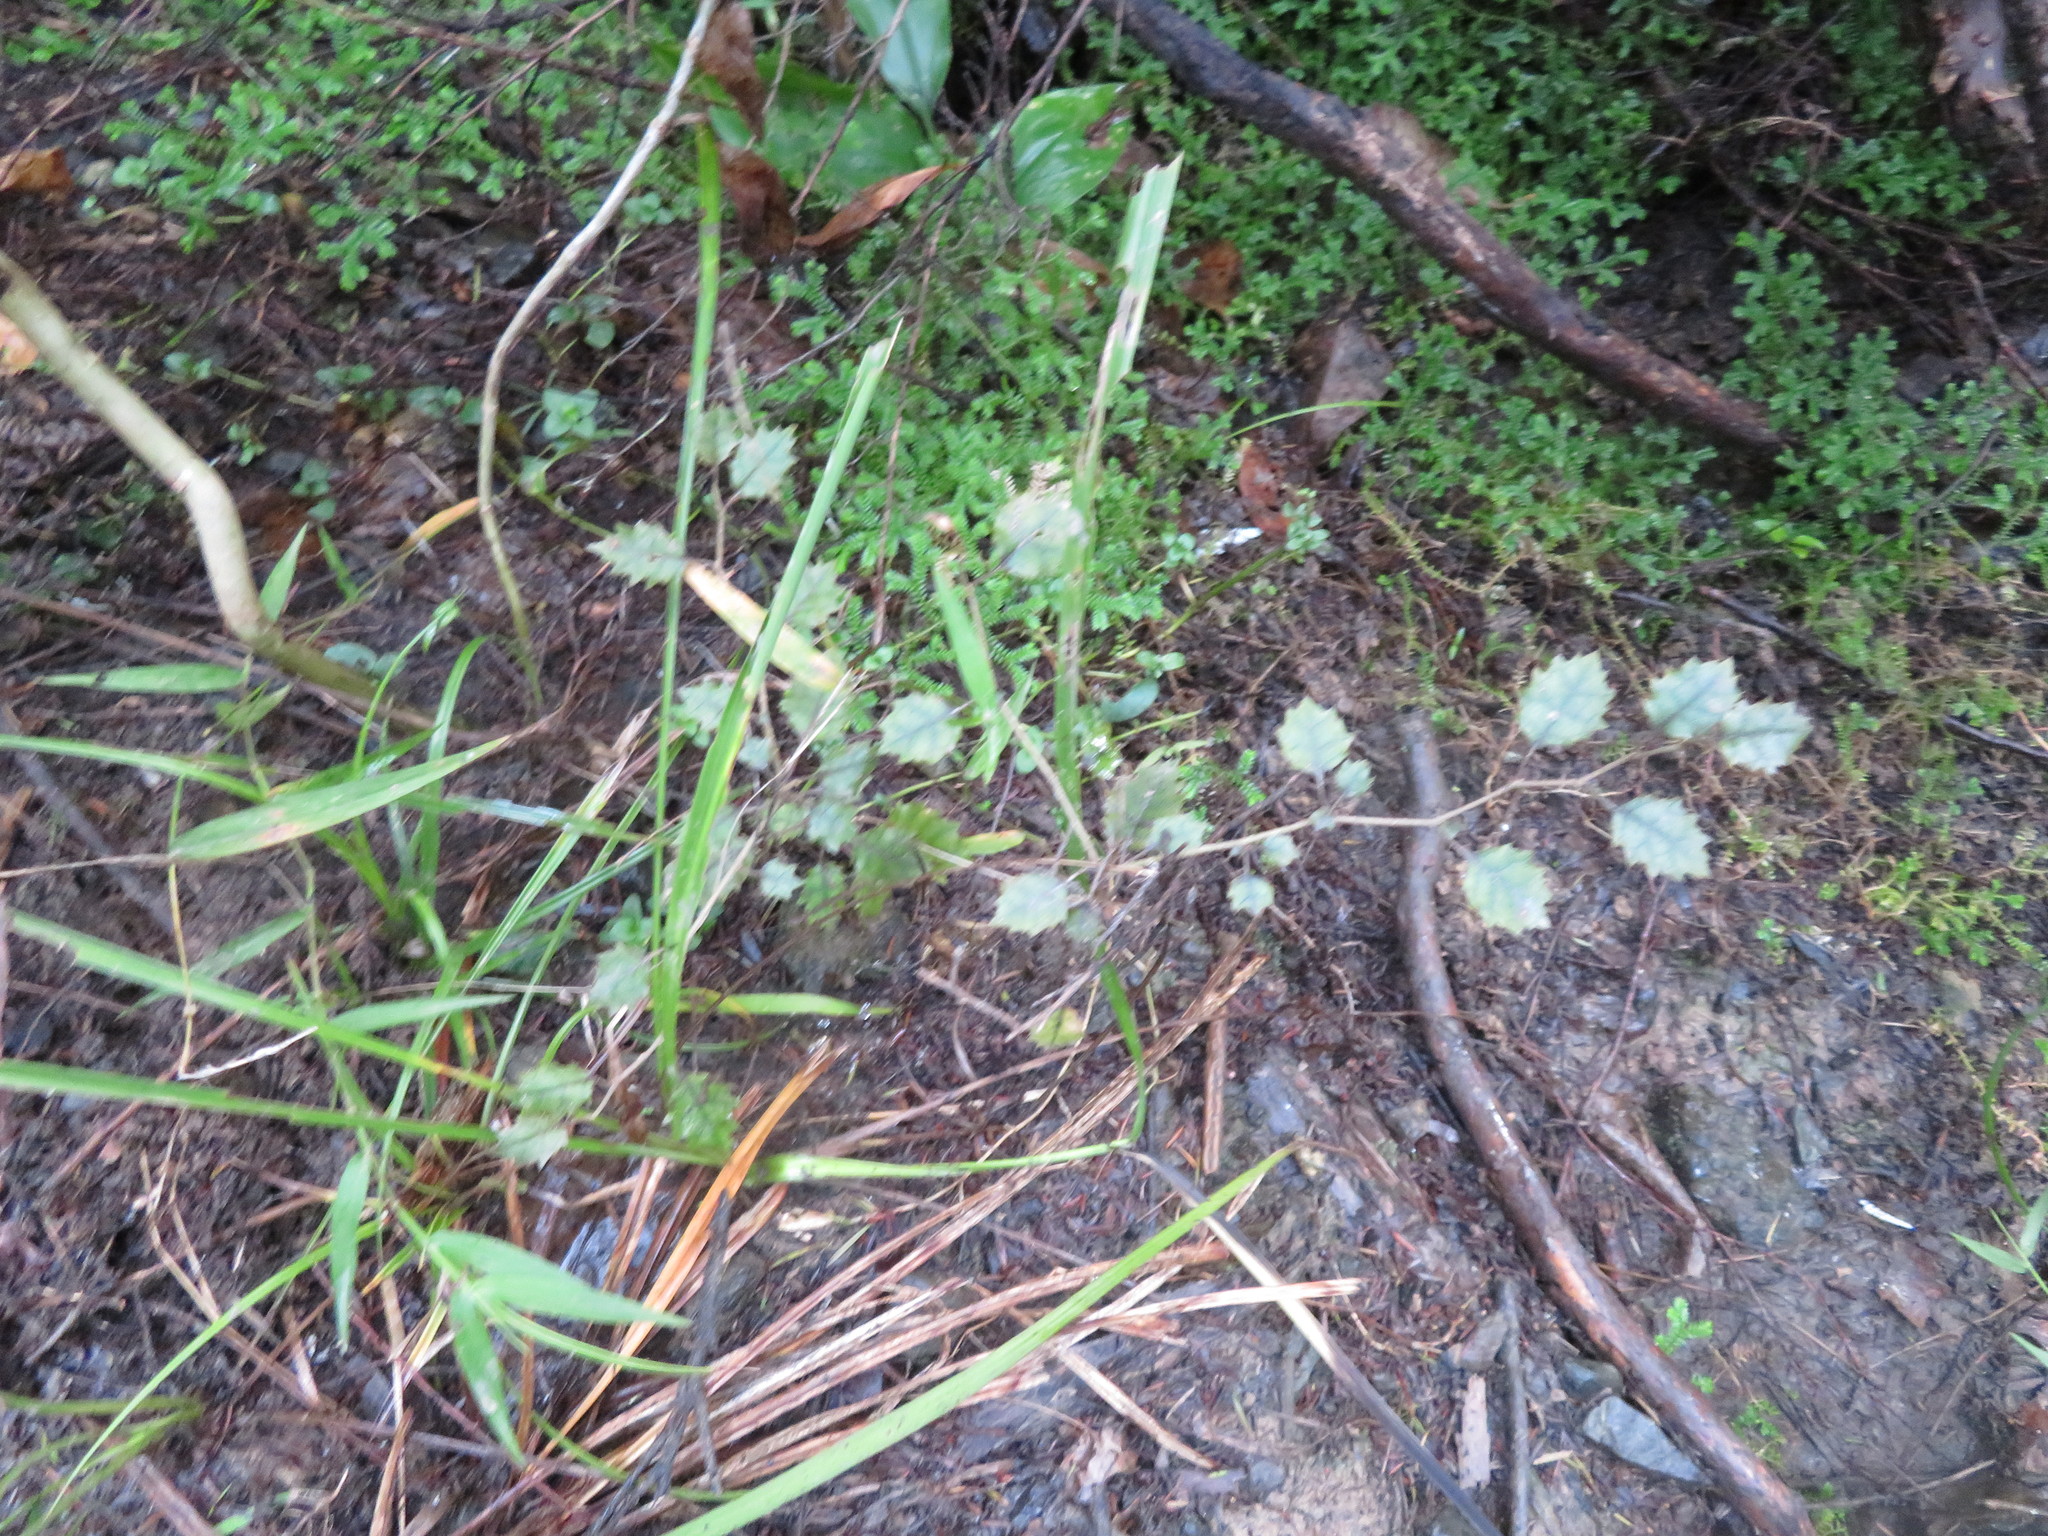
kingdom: Plantae
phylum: Tracheophyta
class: Magnoliopsida
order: Asterales
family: Rousseaceae
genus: Carpodetus
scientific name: Carpodetus serratus
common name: White mapau
